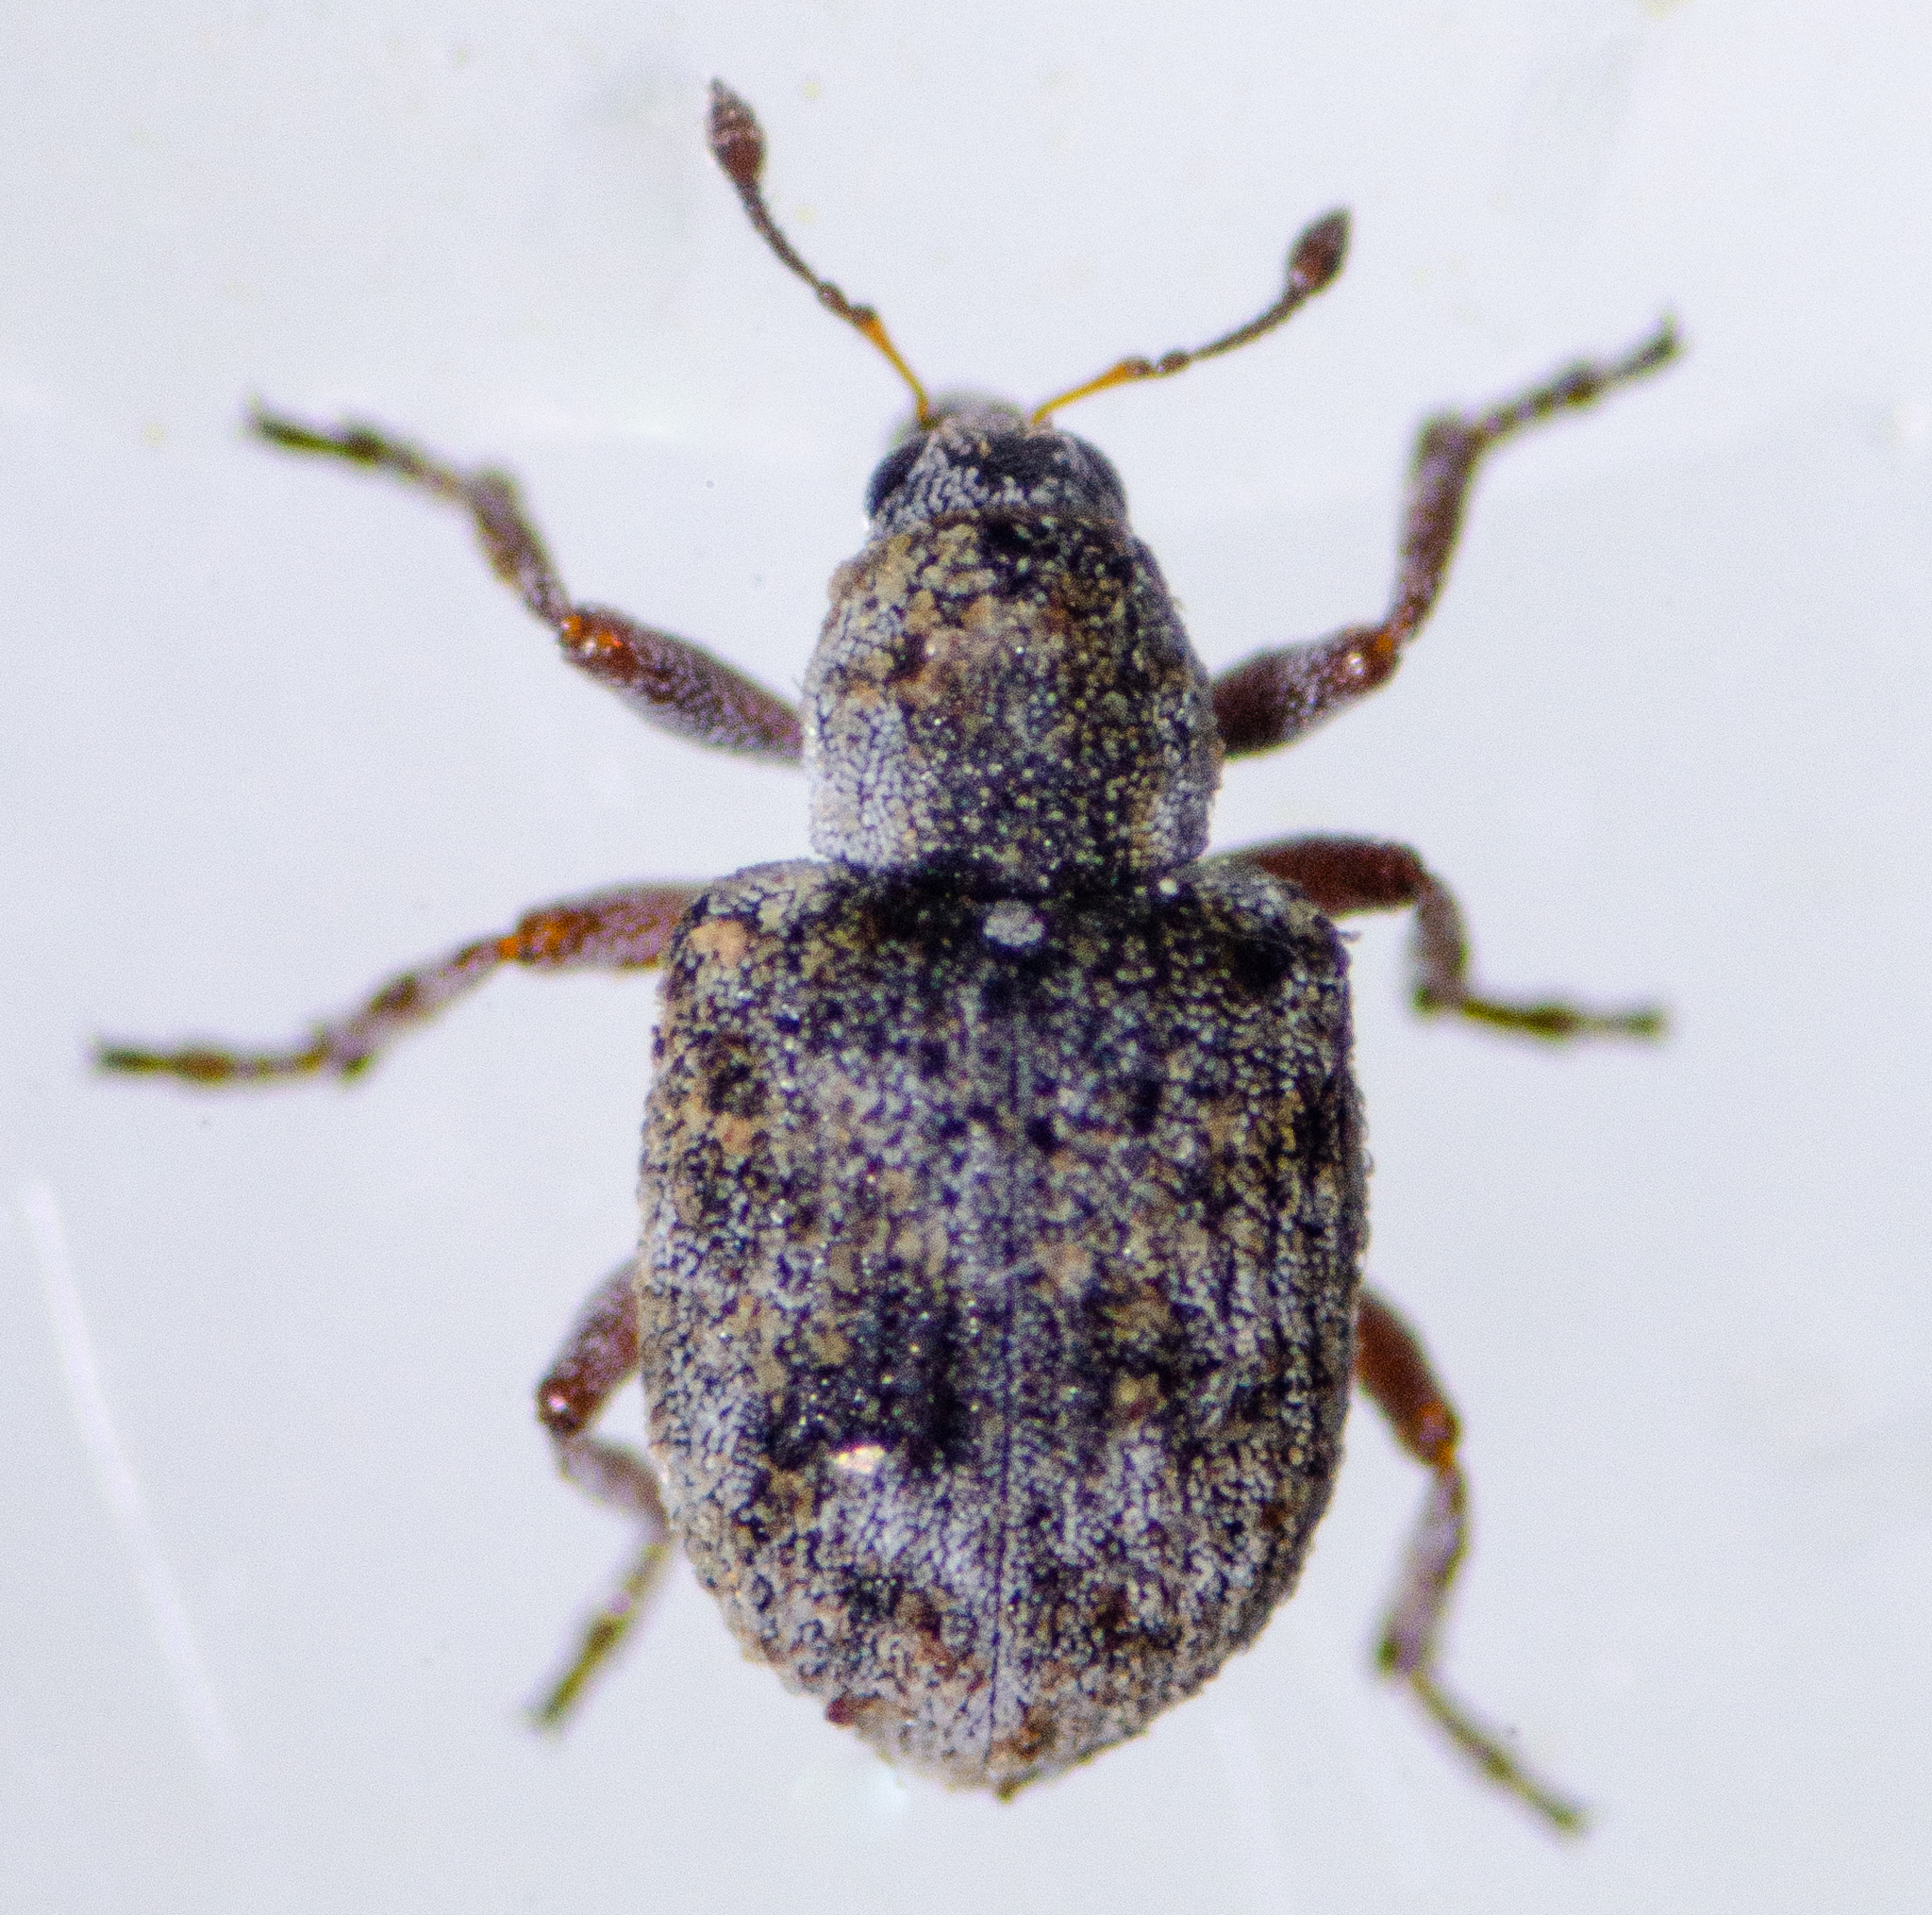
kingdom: Animalia
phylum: Arthropoda
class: Insecta
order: Coleoptera
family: Brachyceridae
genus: Stenopelmus
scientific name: Stenopelmus rufinasus
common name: Azolla weevil
